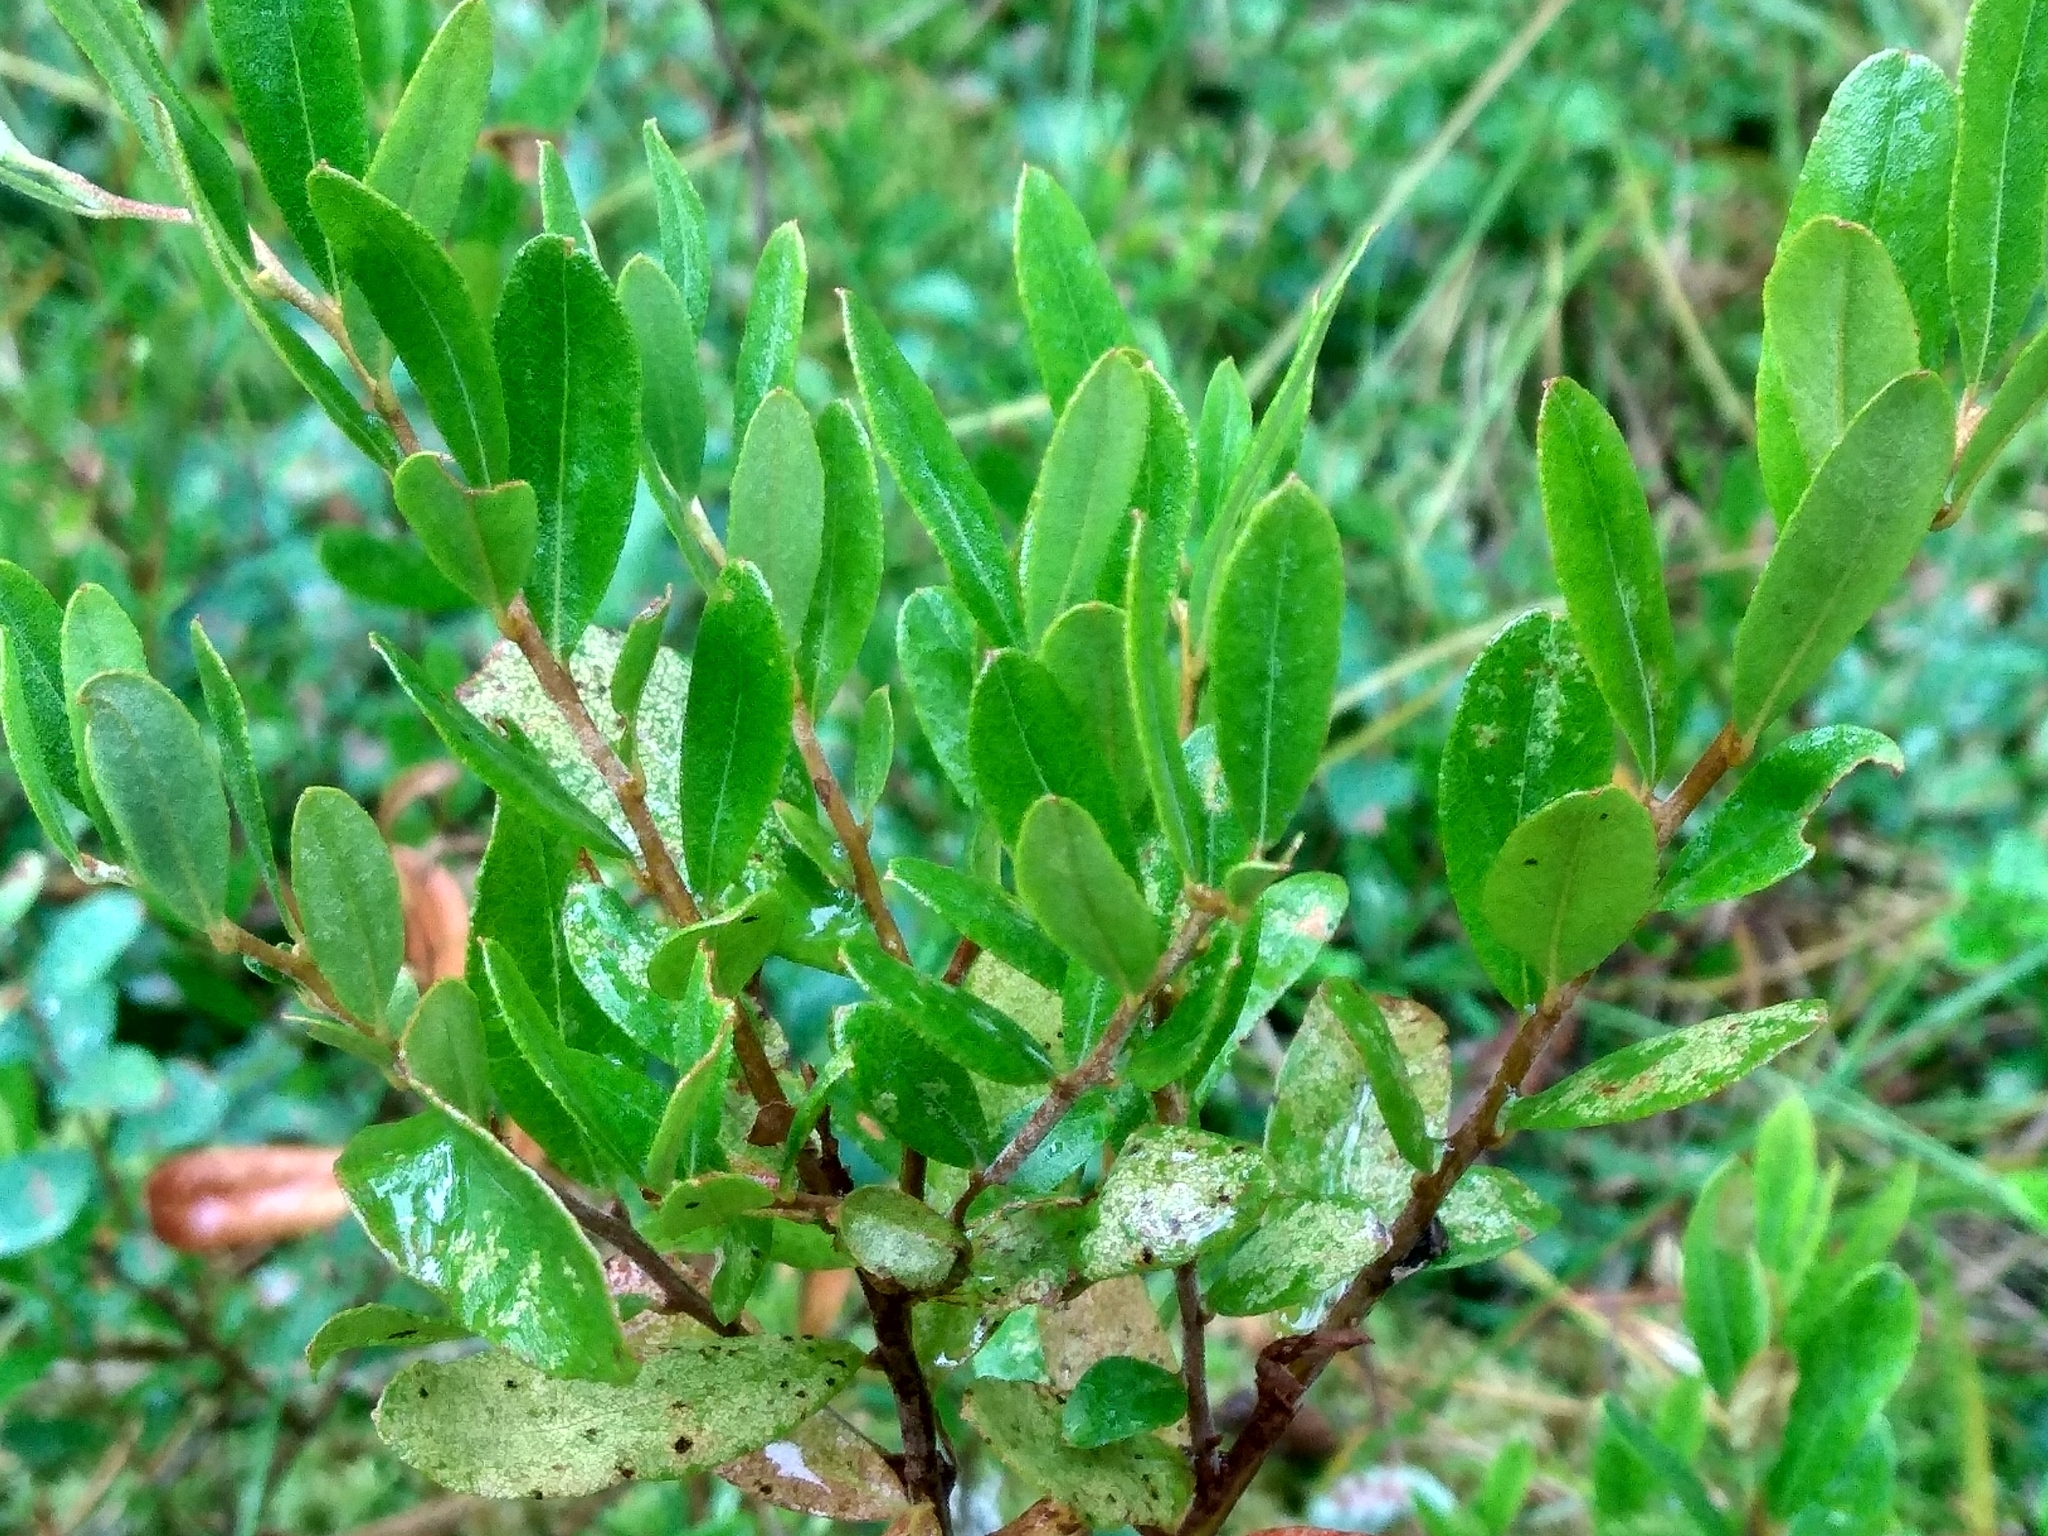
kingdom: Plantae
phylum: Tracheophyta
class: Magnoliopsida
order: Ericales
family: Ericaceae
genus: Chamaedaphne
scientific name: Chamaedaphne calyculata
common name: Leatherleaf
